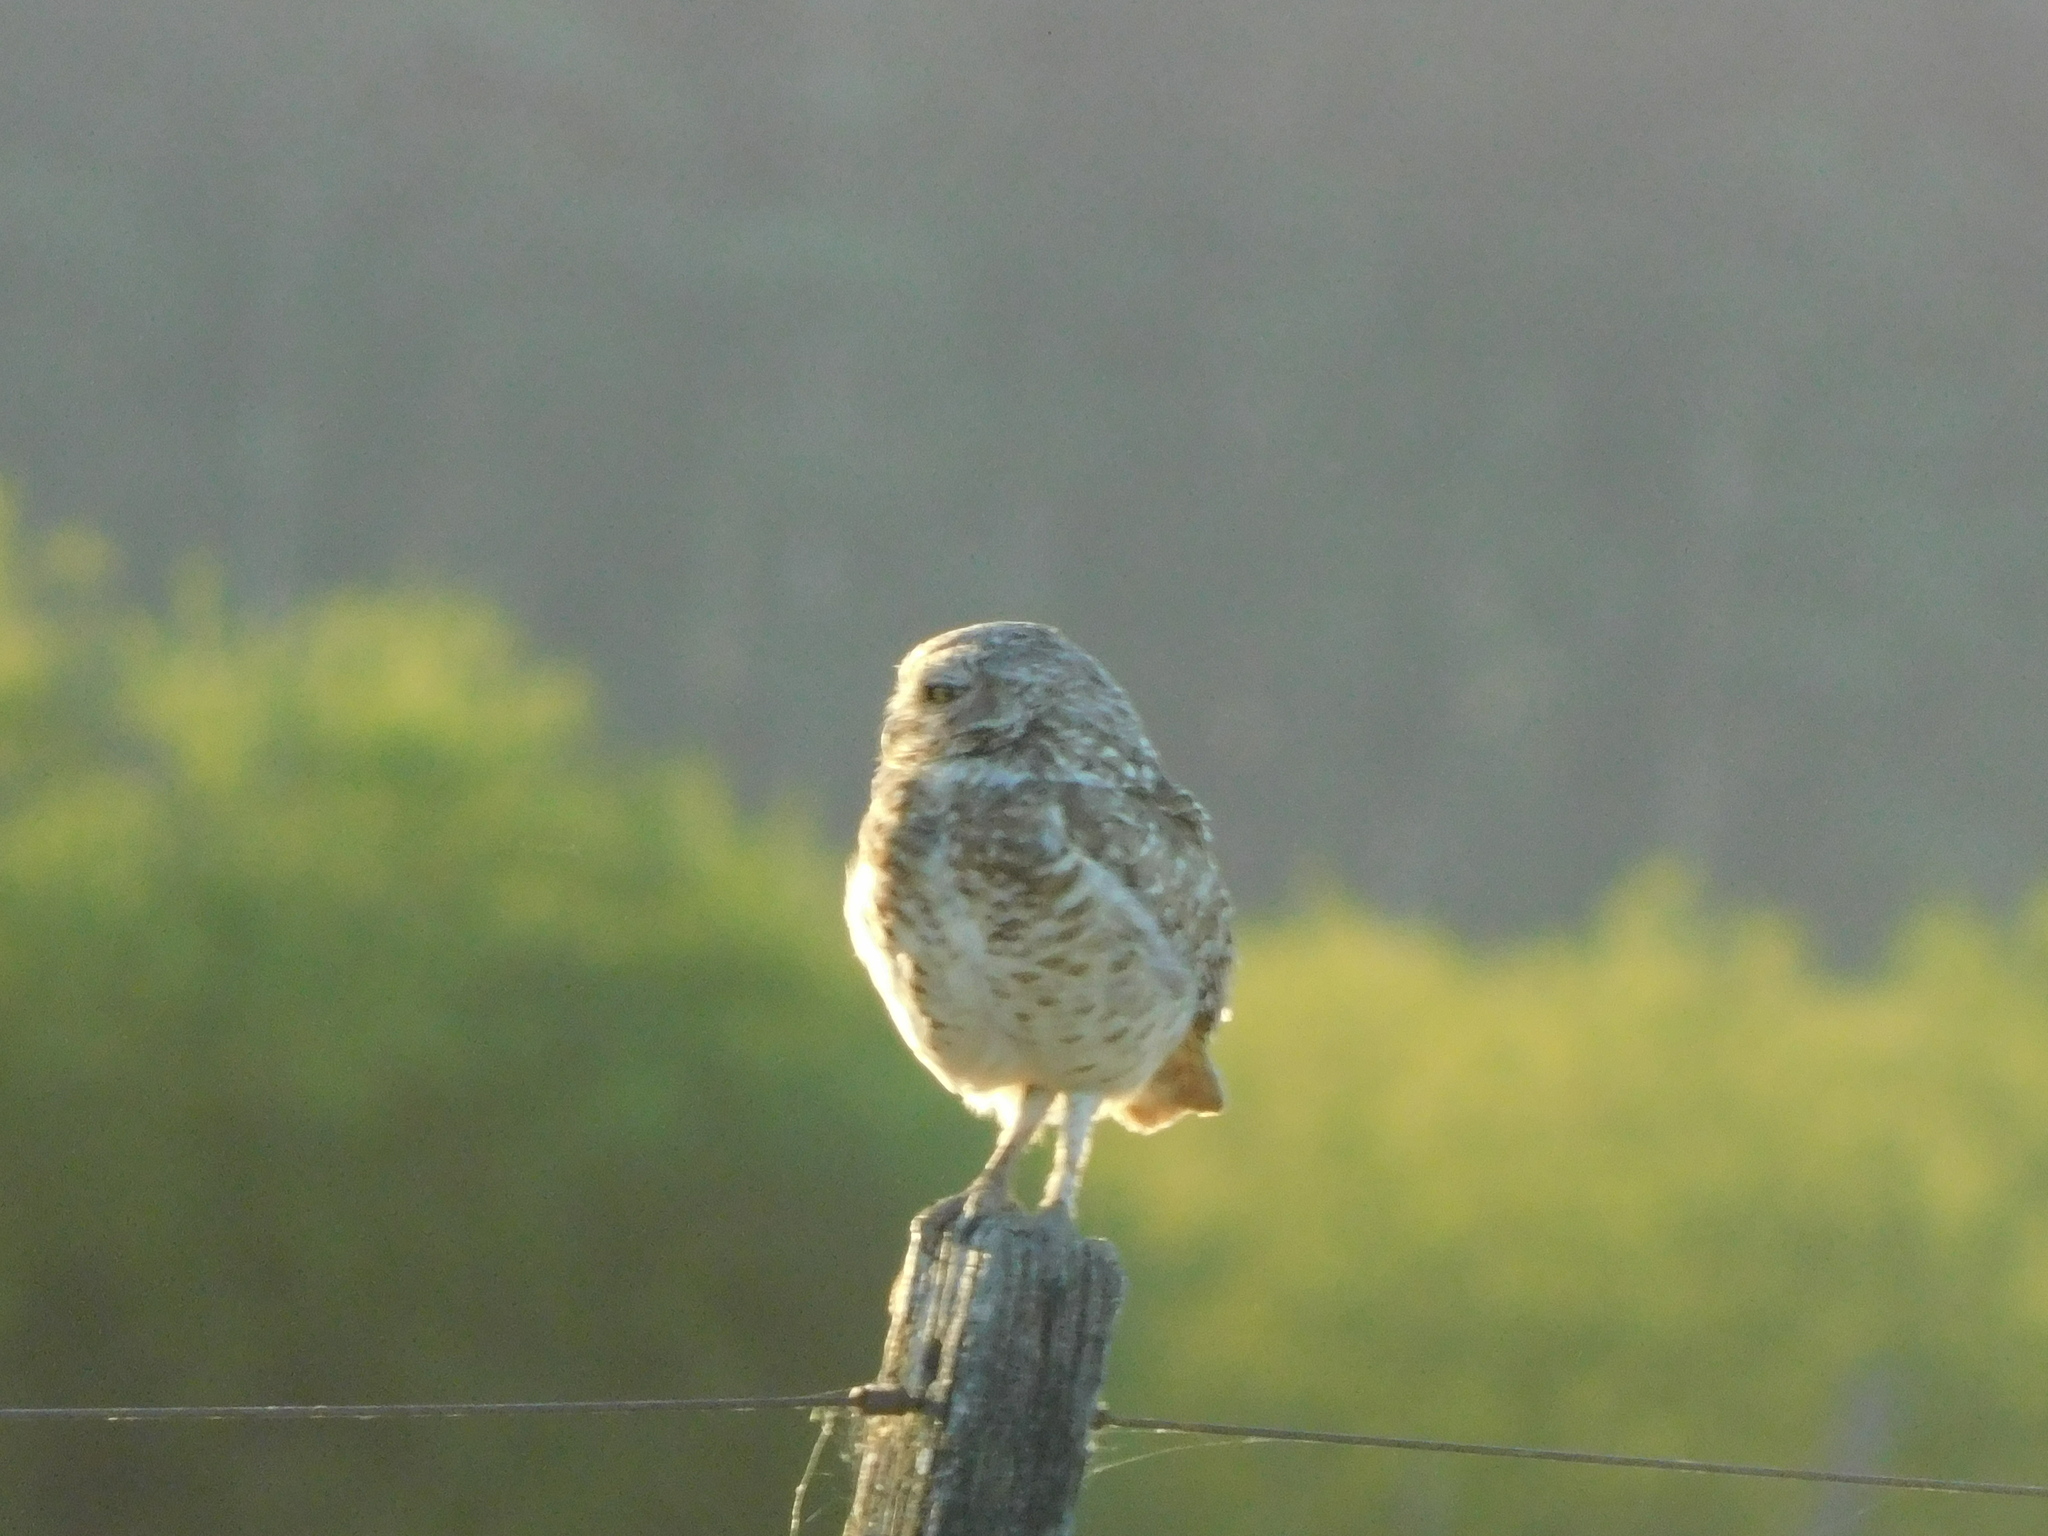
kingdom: Animalia
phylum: Chordata
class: Aves
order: Strigiformes
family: Strigidae
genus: Athene
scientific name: Athene cunicularia
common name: Burrowing owl
